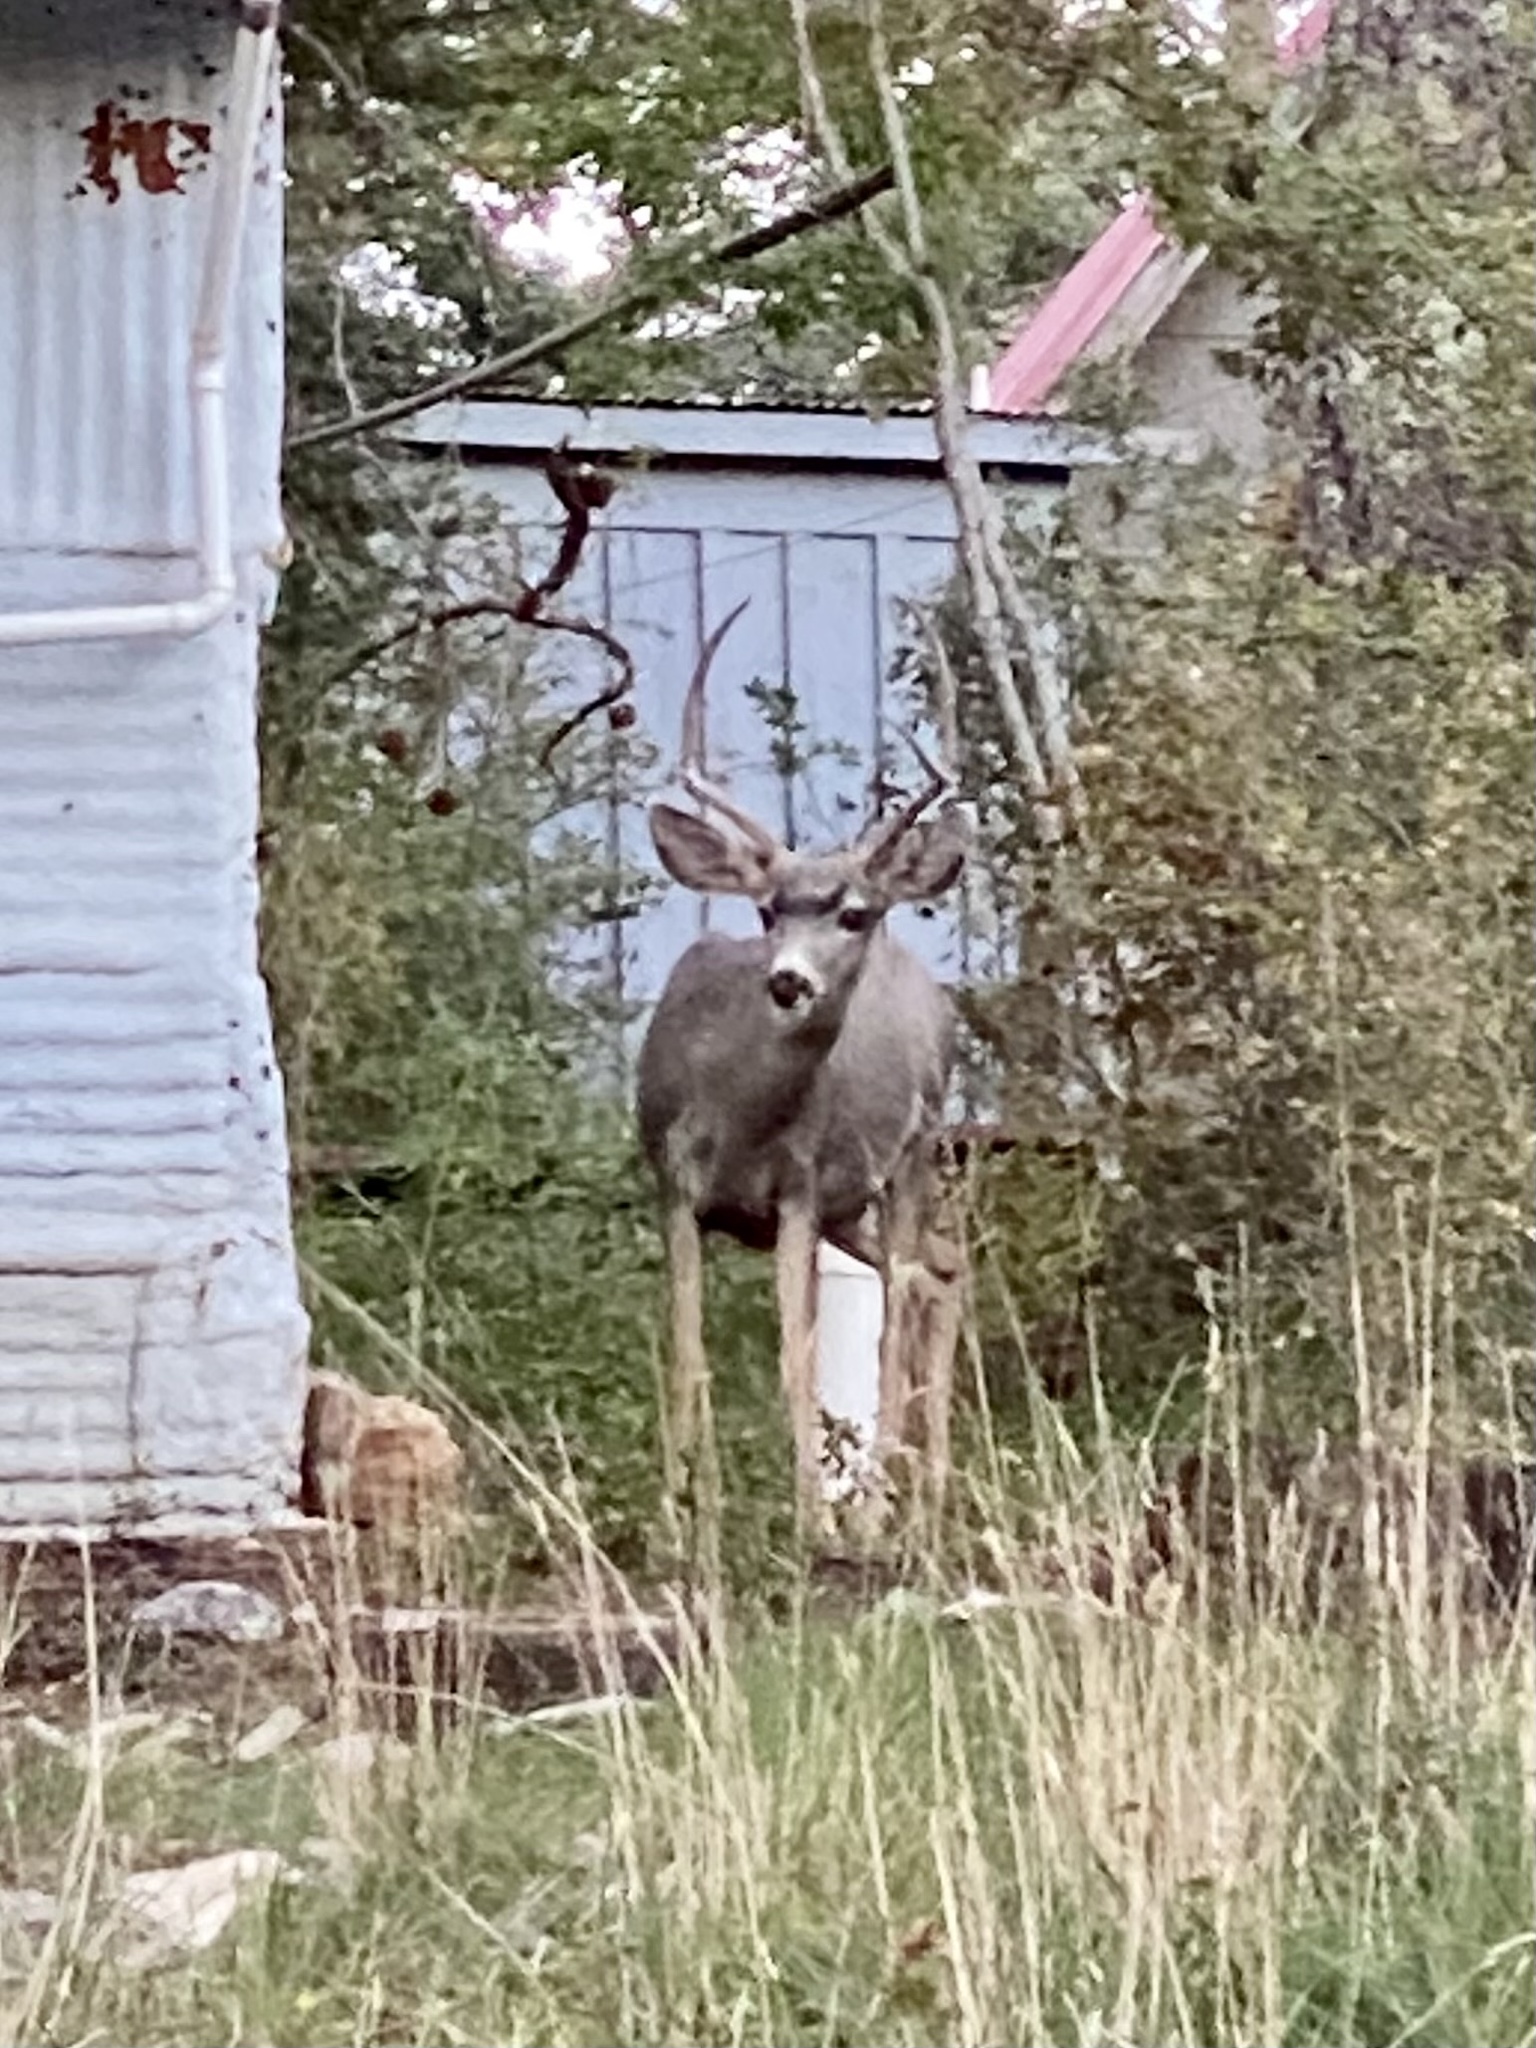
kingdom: Animalia
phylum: Chordata
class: Mammalia
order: Artiodactyla
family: Cervidae
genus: Odocoileus
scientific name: Odocoileus hemionus
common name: Mule deer
